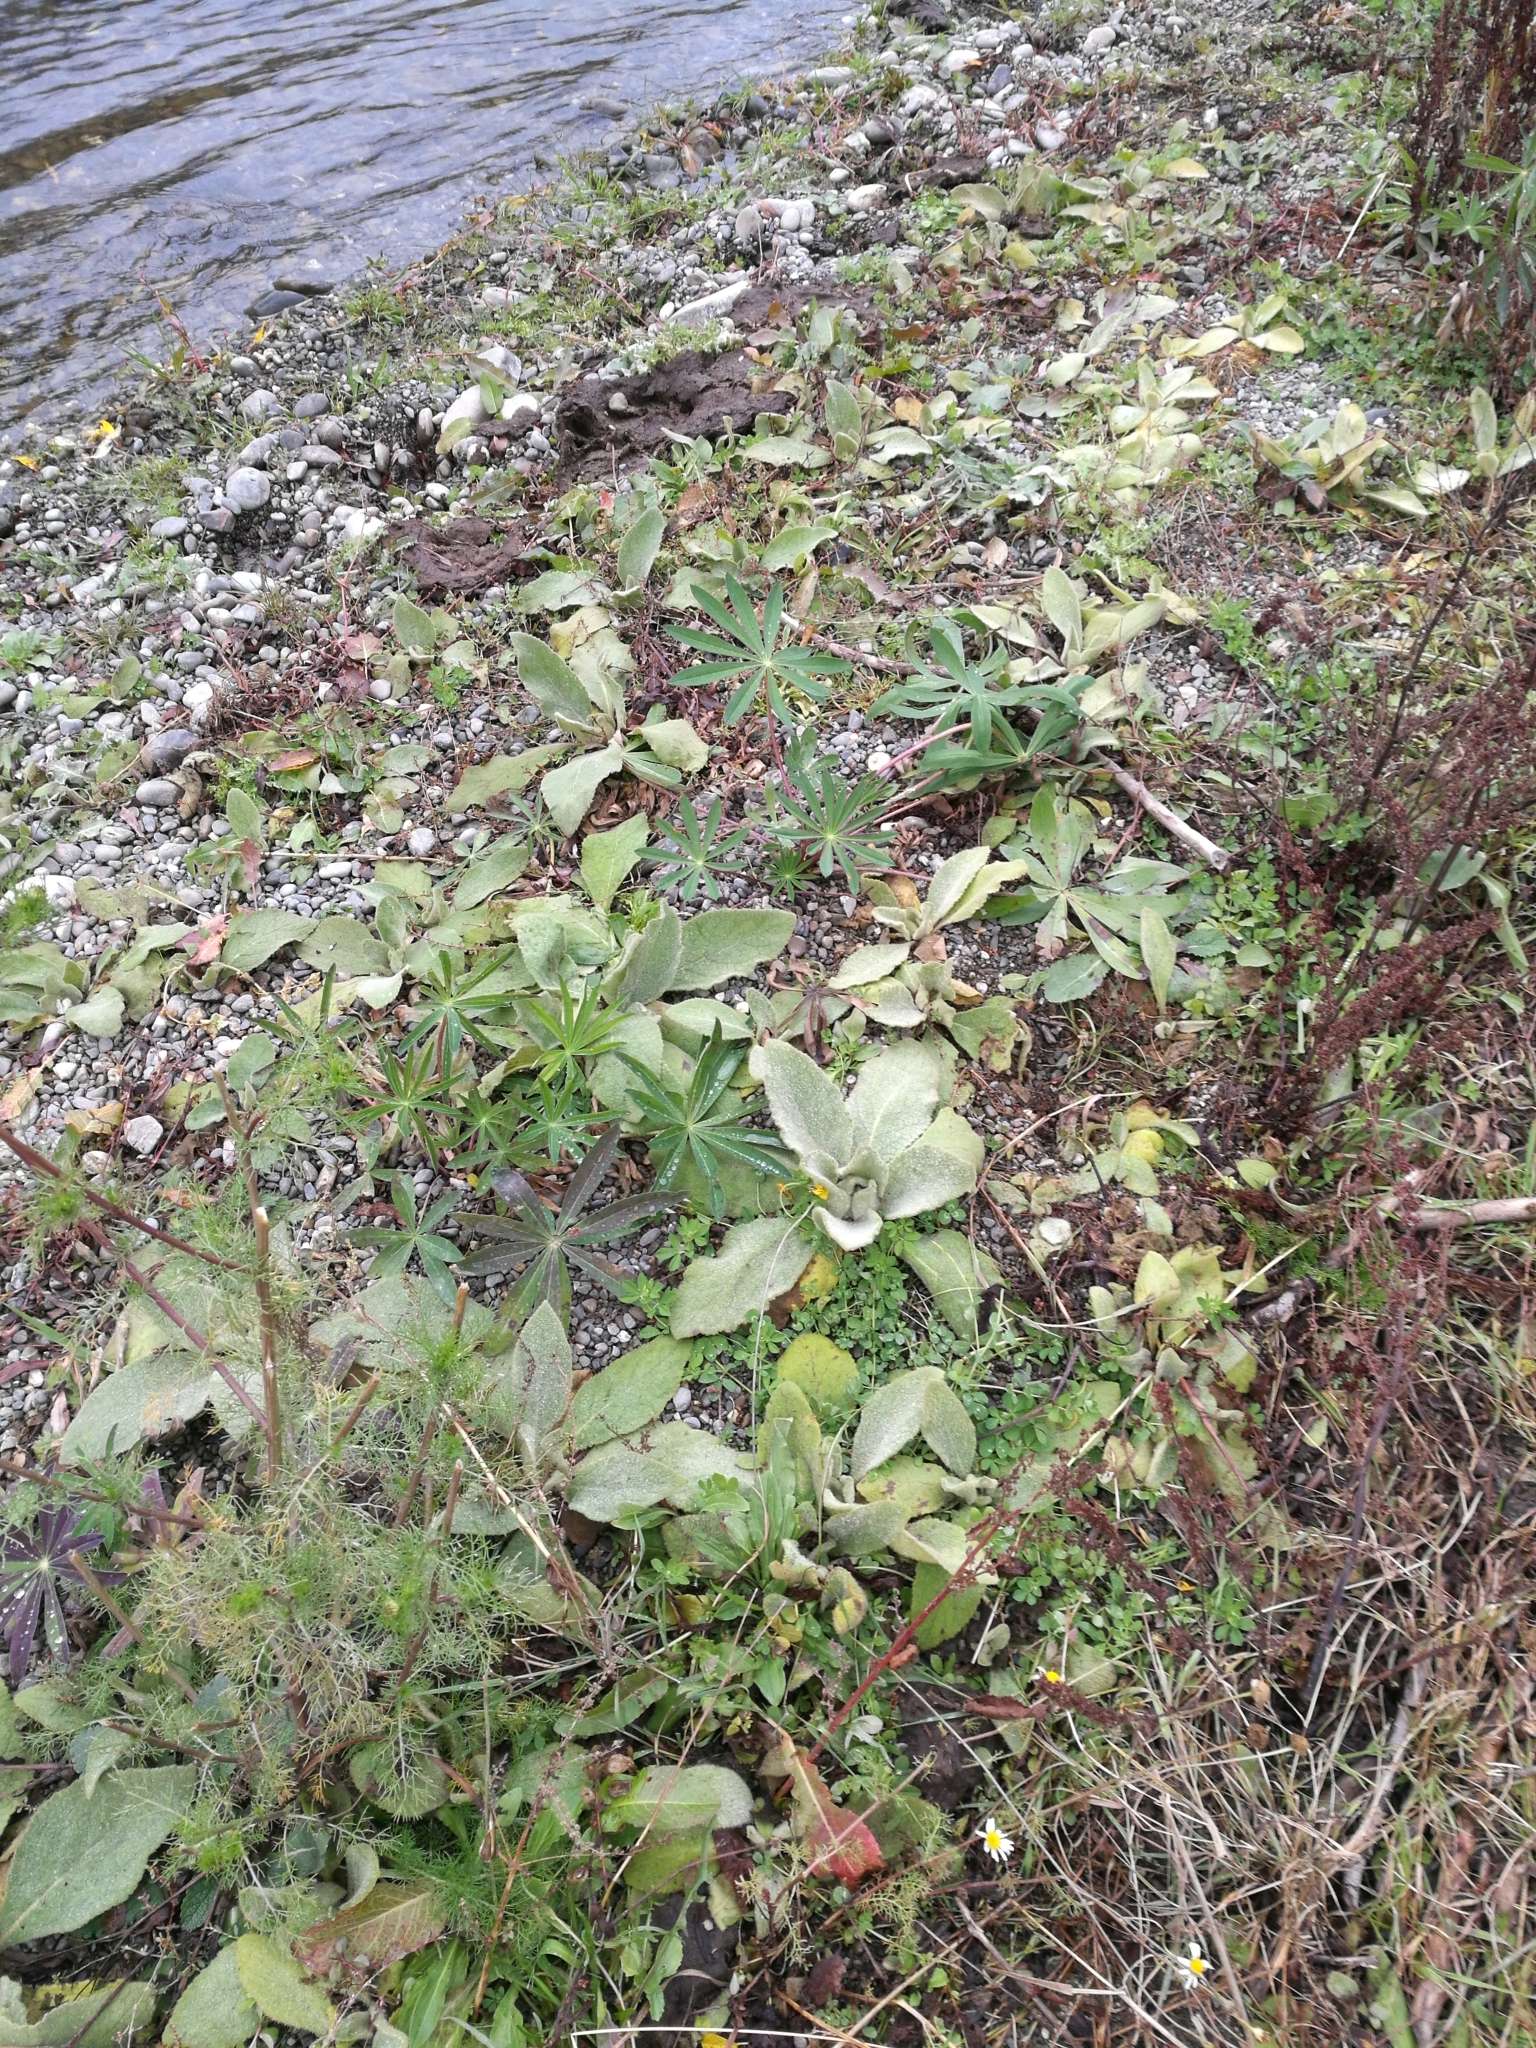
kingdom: Plantae
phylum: Tracheophyta
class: Magnoliopsida
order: Lamiales
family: Scrophulariaceae
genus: Verbascum
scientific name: Verbascum thapsus
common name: Common mullein
